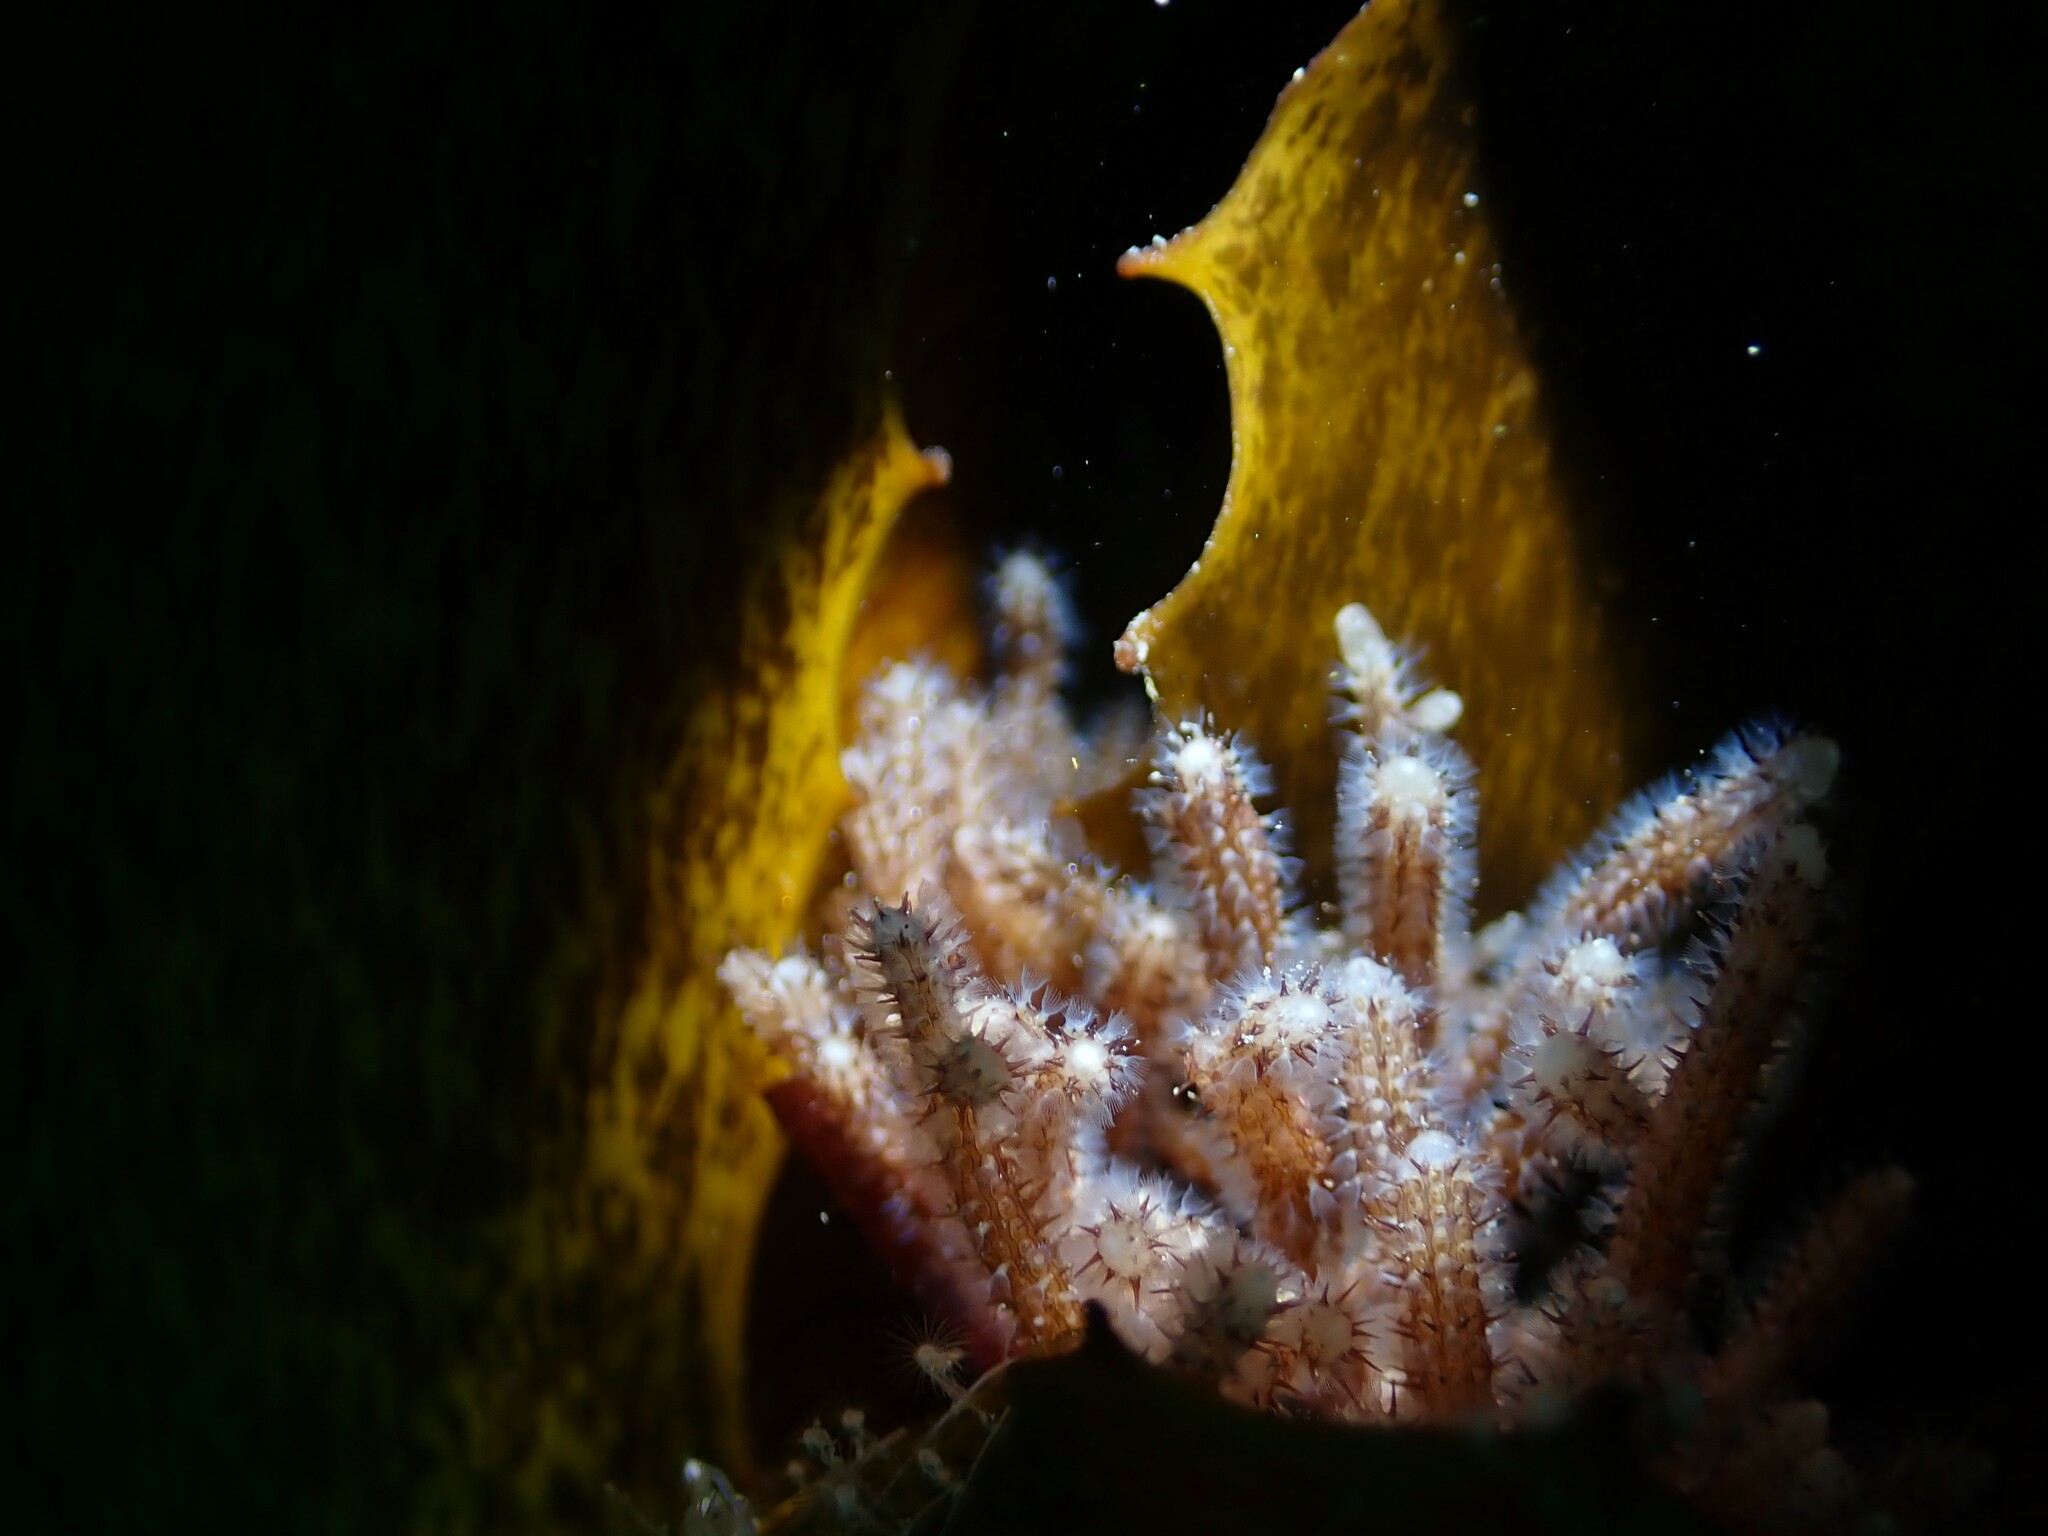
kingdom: Animalia
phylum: Bryozoa
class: Gymnolaemata
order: Ctenostomatida
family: Flustrellidridae
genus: Elzerina
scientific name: Elzerina binderi
